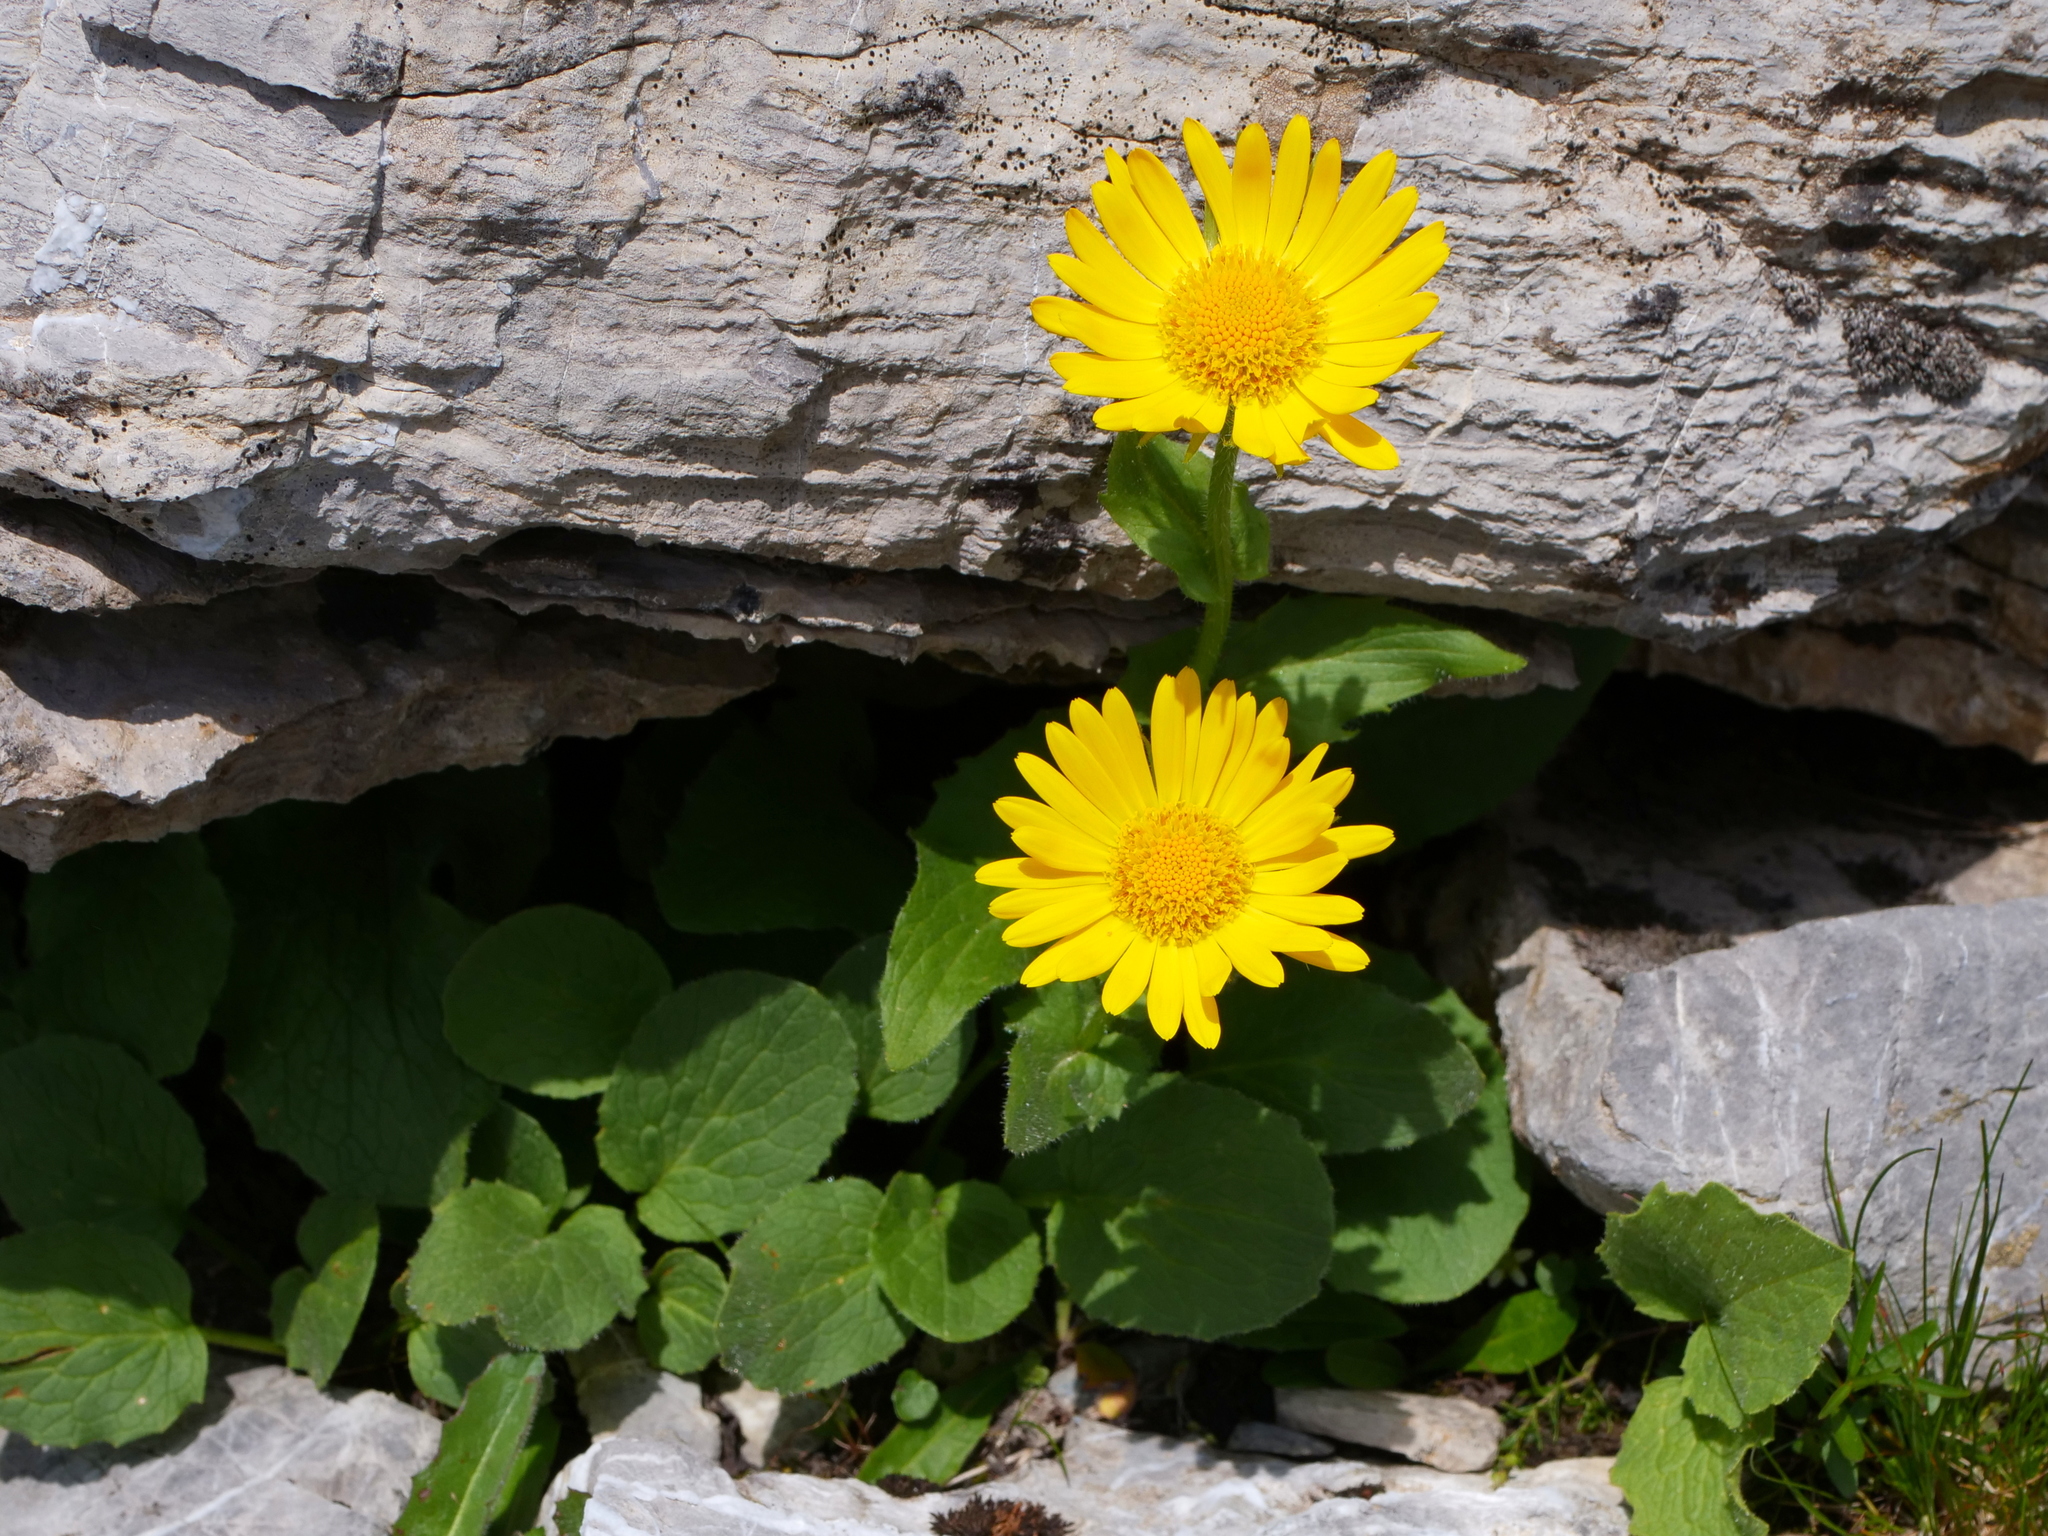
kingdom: Plantae
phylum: Tracheophyta
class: Magnoliopsida
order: Asterales
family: Asteraceae
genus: Doronicum
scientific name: Doronicum grandiflorum
